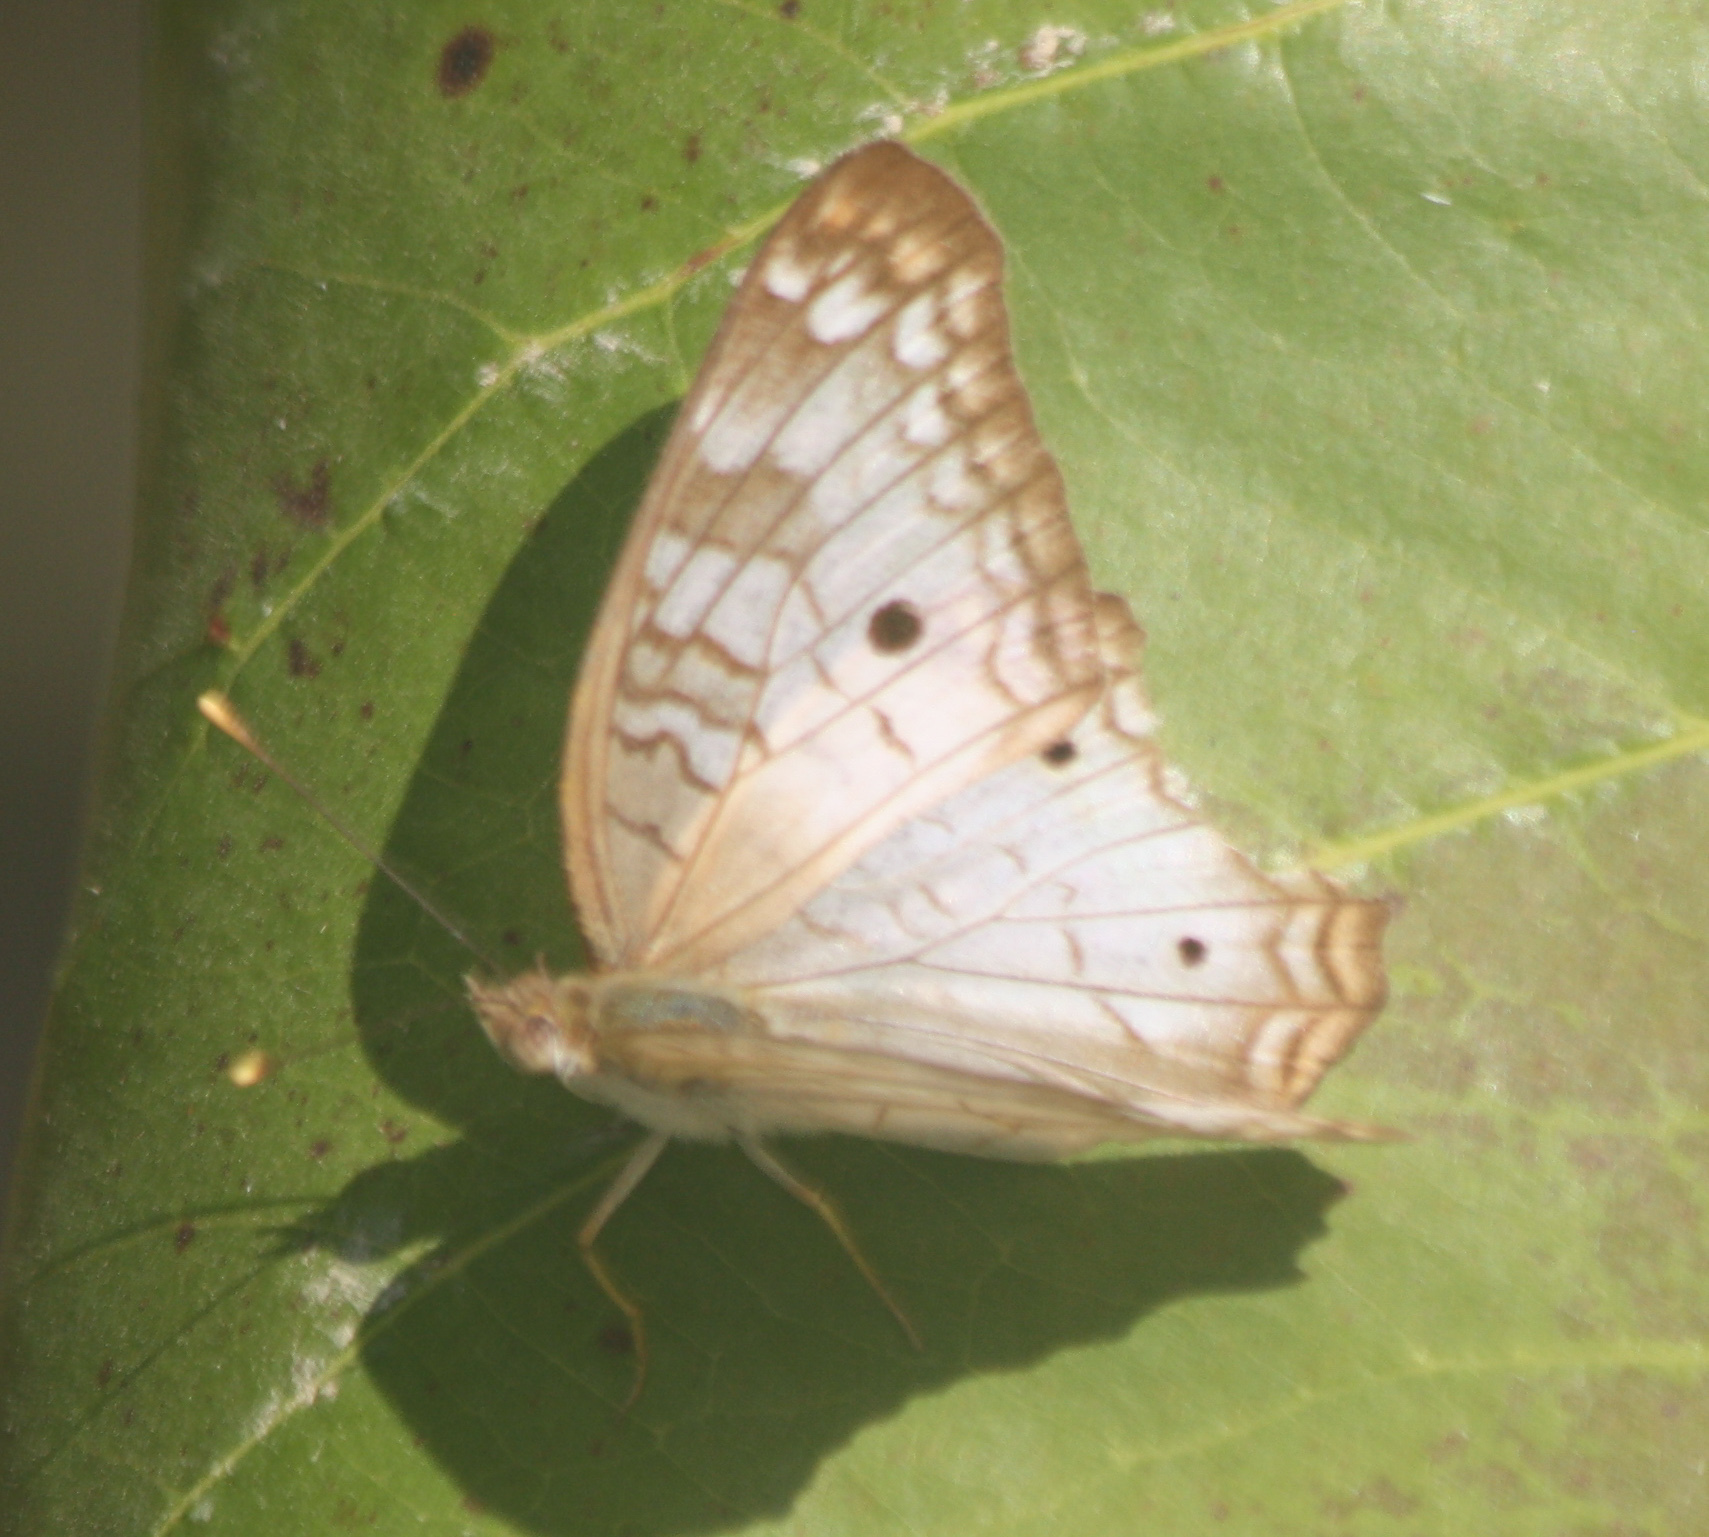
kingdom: Animalia
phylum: Arthropoda
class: Insecta
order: Lepidoptera
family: Nymphalidae
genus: Anartia
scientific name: Anartia jatrophae
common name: White peacock
